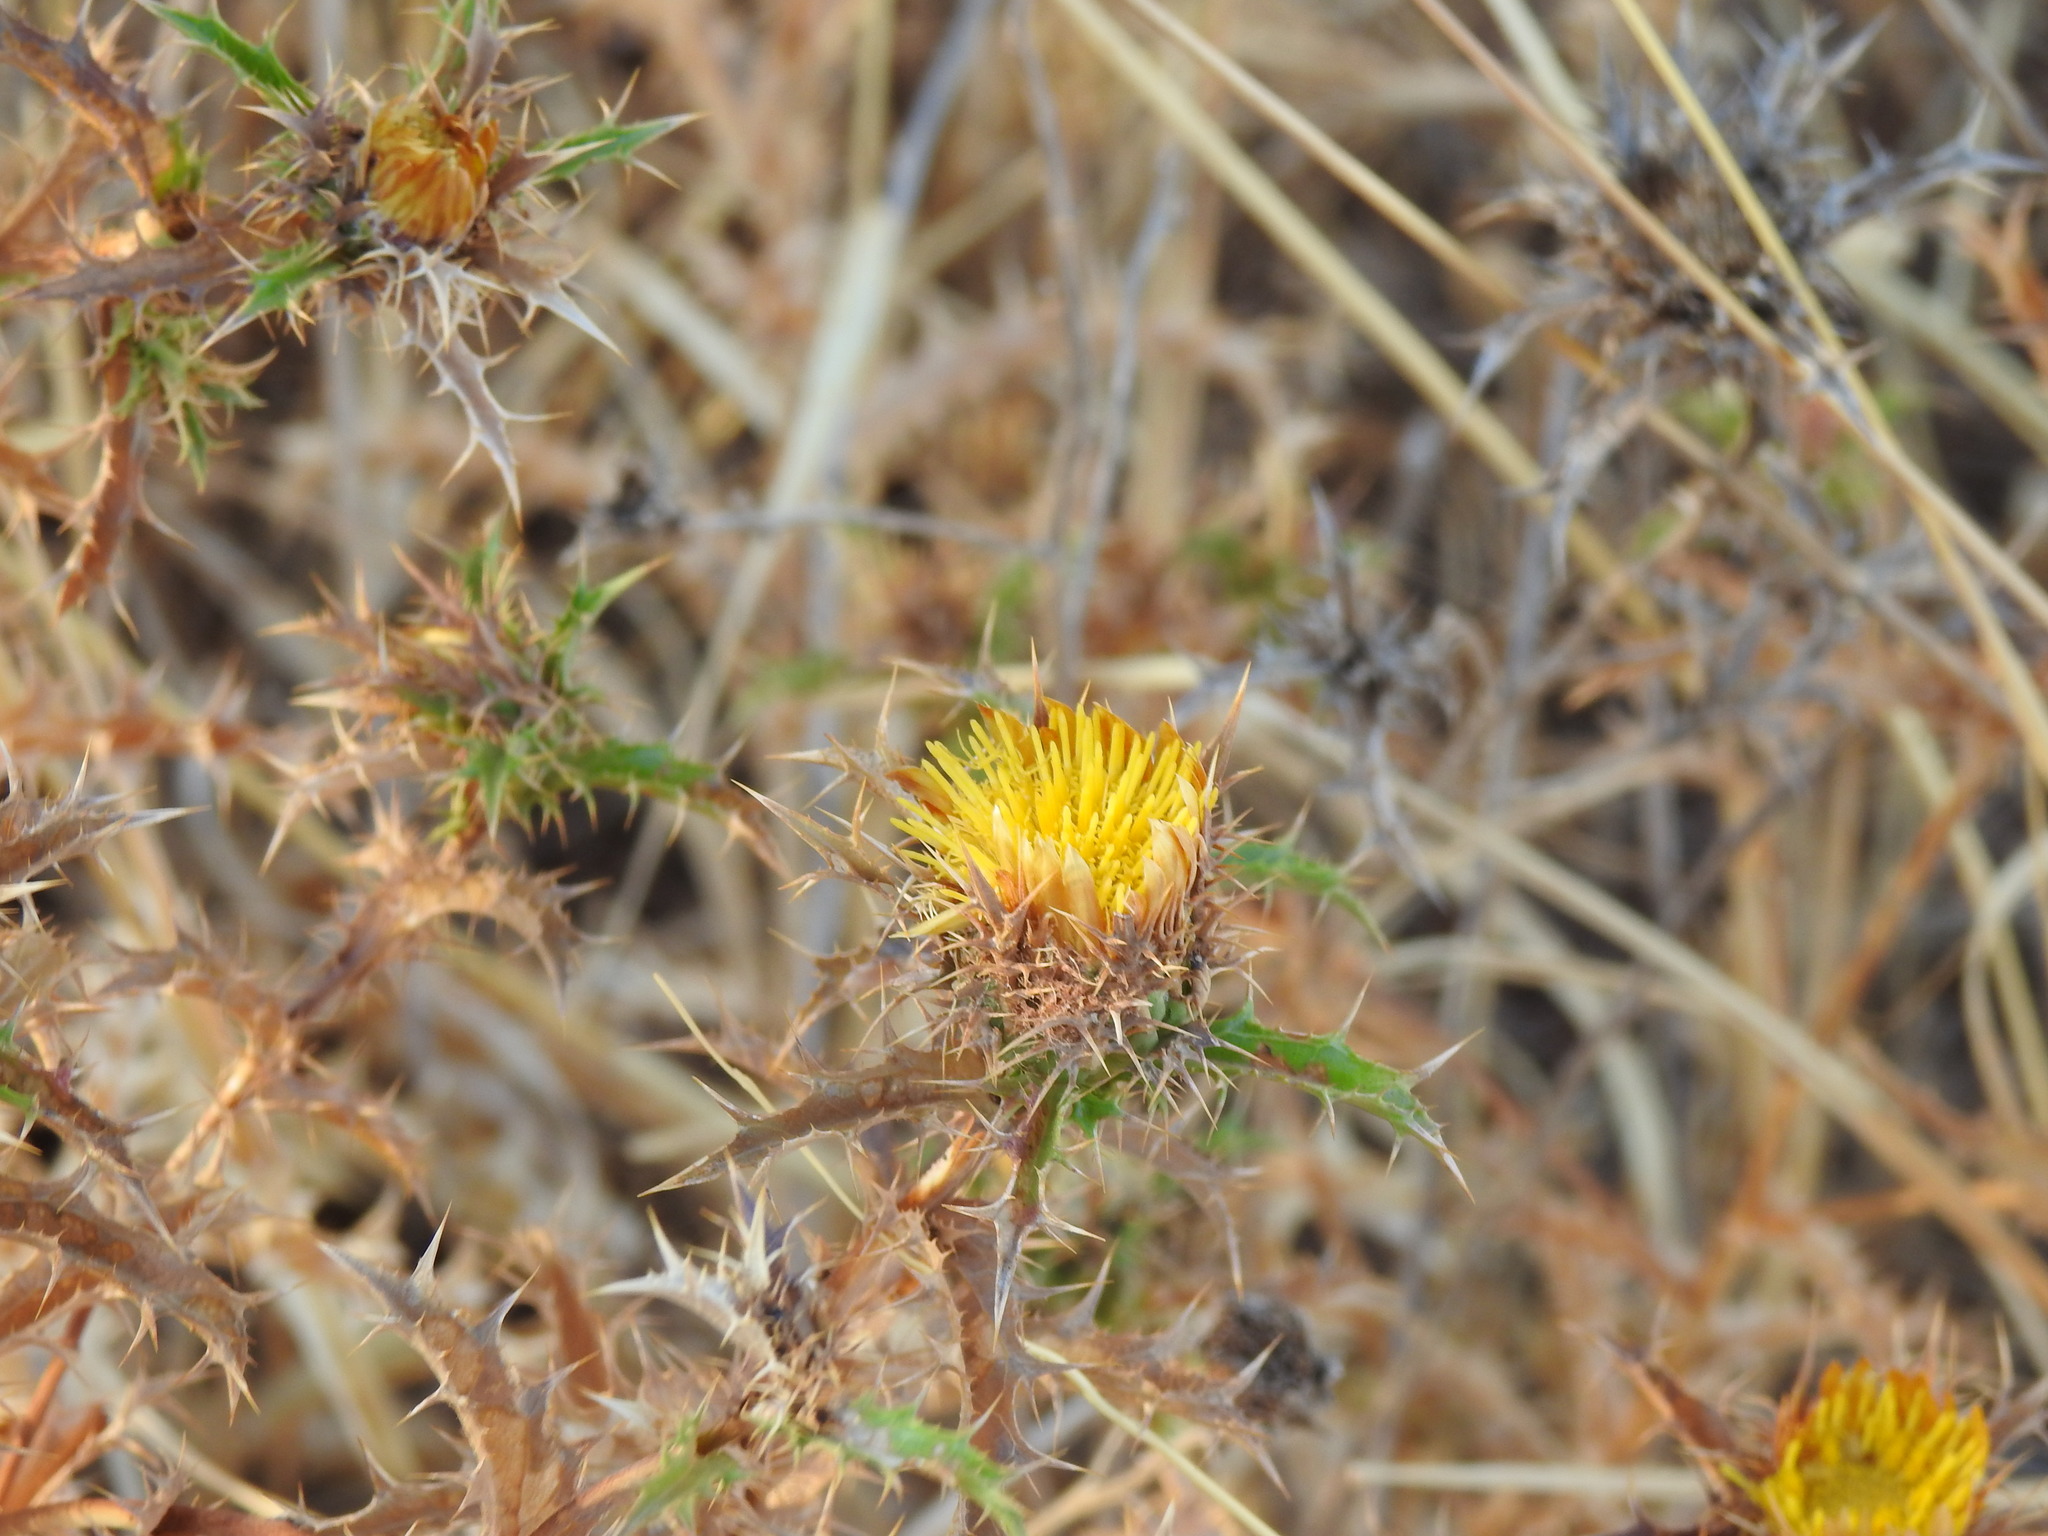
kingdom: Plantae
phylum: Tracheophyta
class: Magnoliopsida
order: Asterales
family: Asteraceae
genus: Carlina
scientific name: Carlina hispanica
